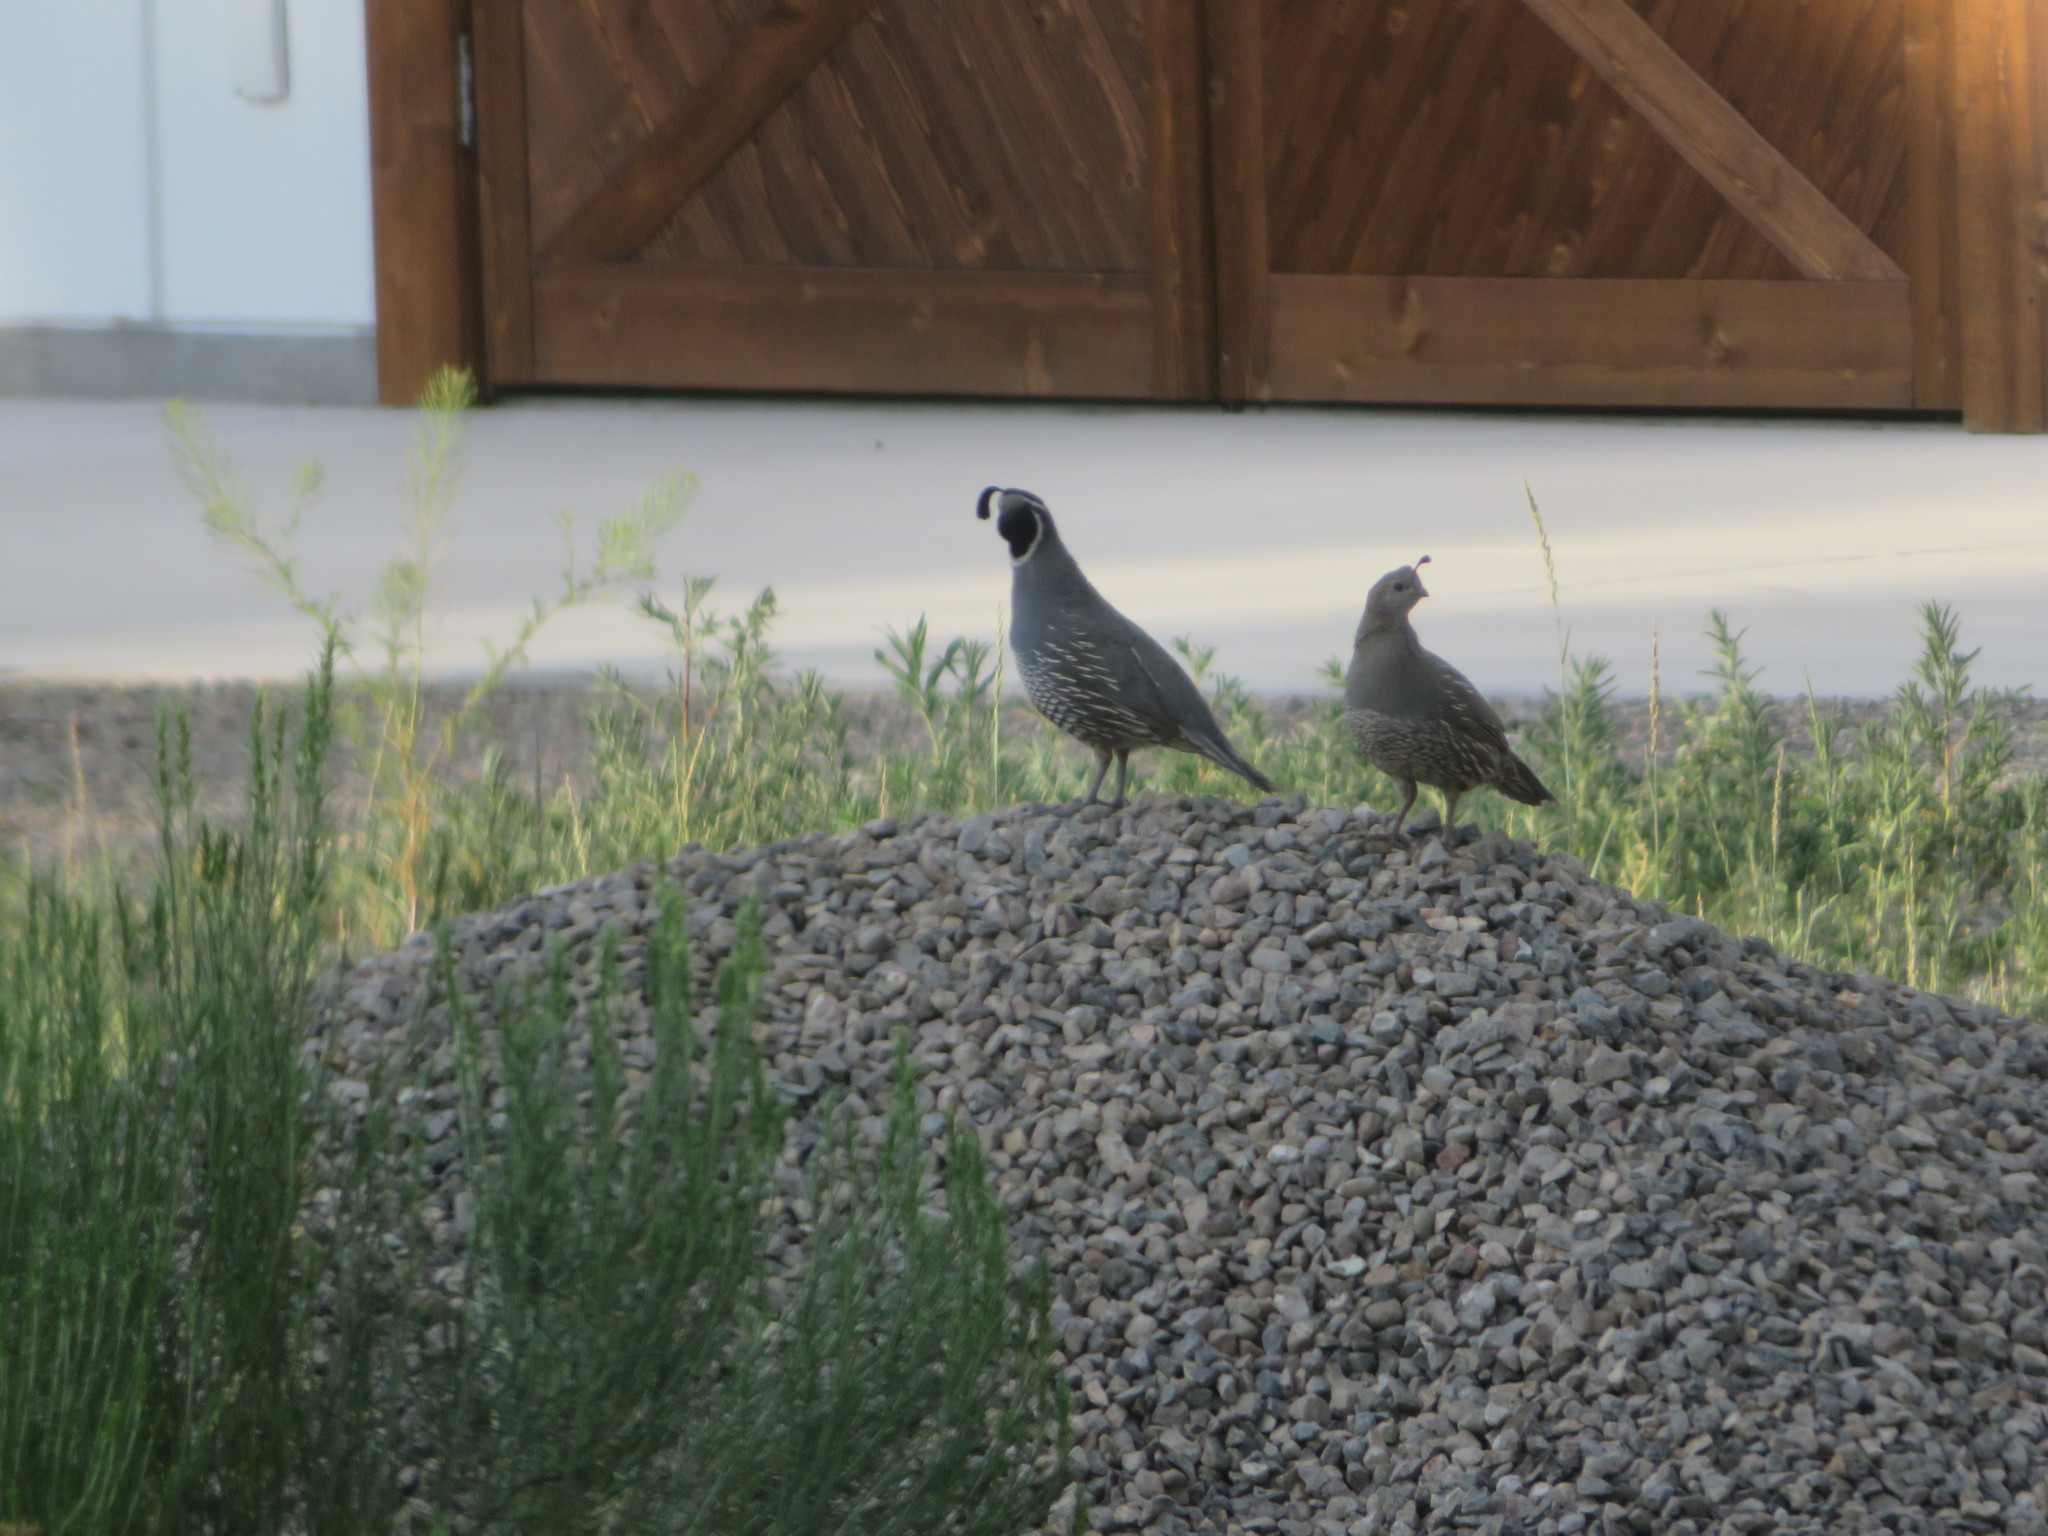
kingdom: Animalia
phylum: Chordata
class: Aves
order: Galliformes
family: Odontophoridae
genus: Callipepla
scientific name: Callipepla californica
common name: California quail
